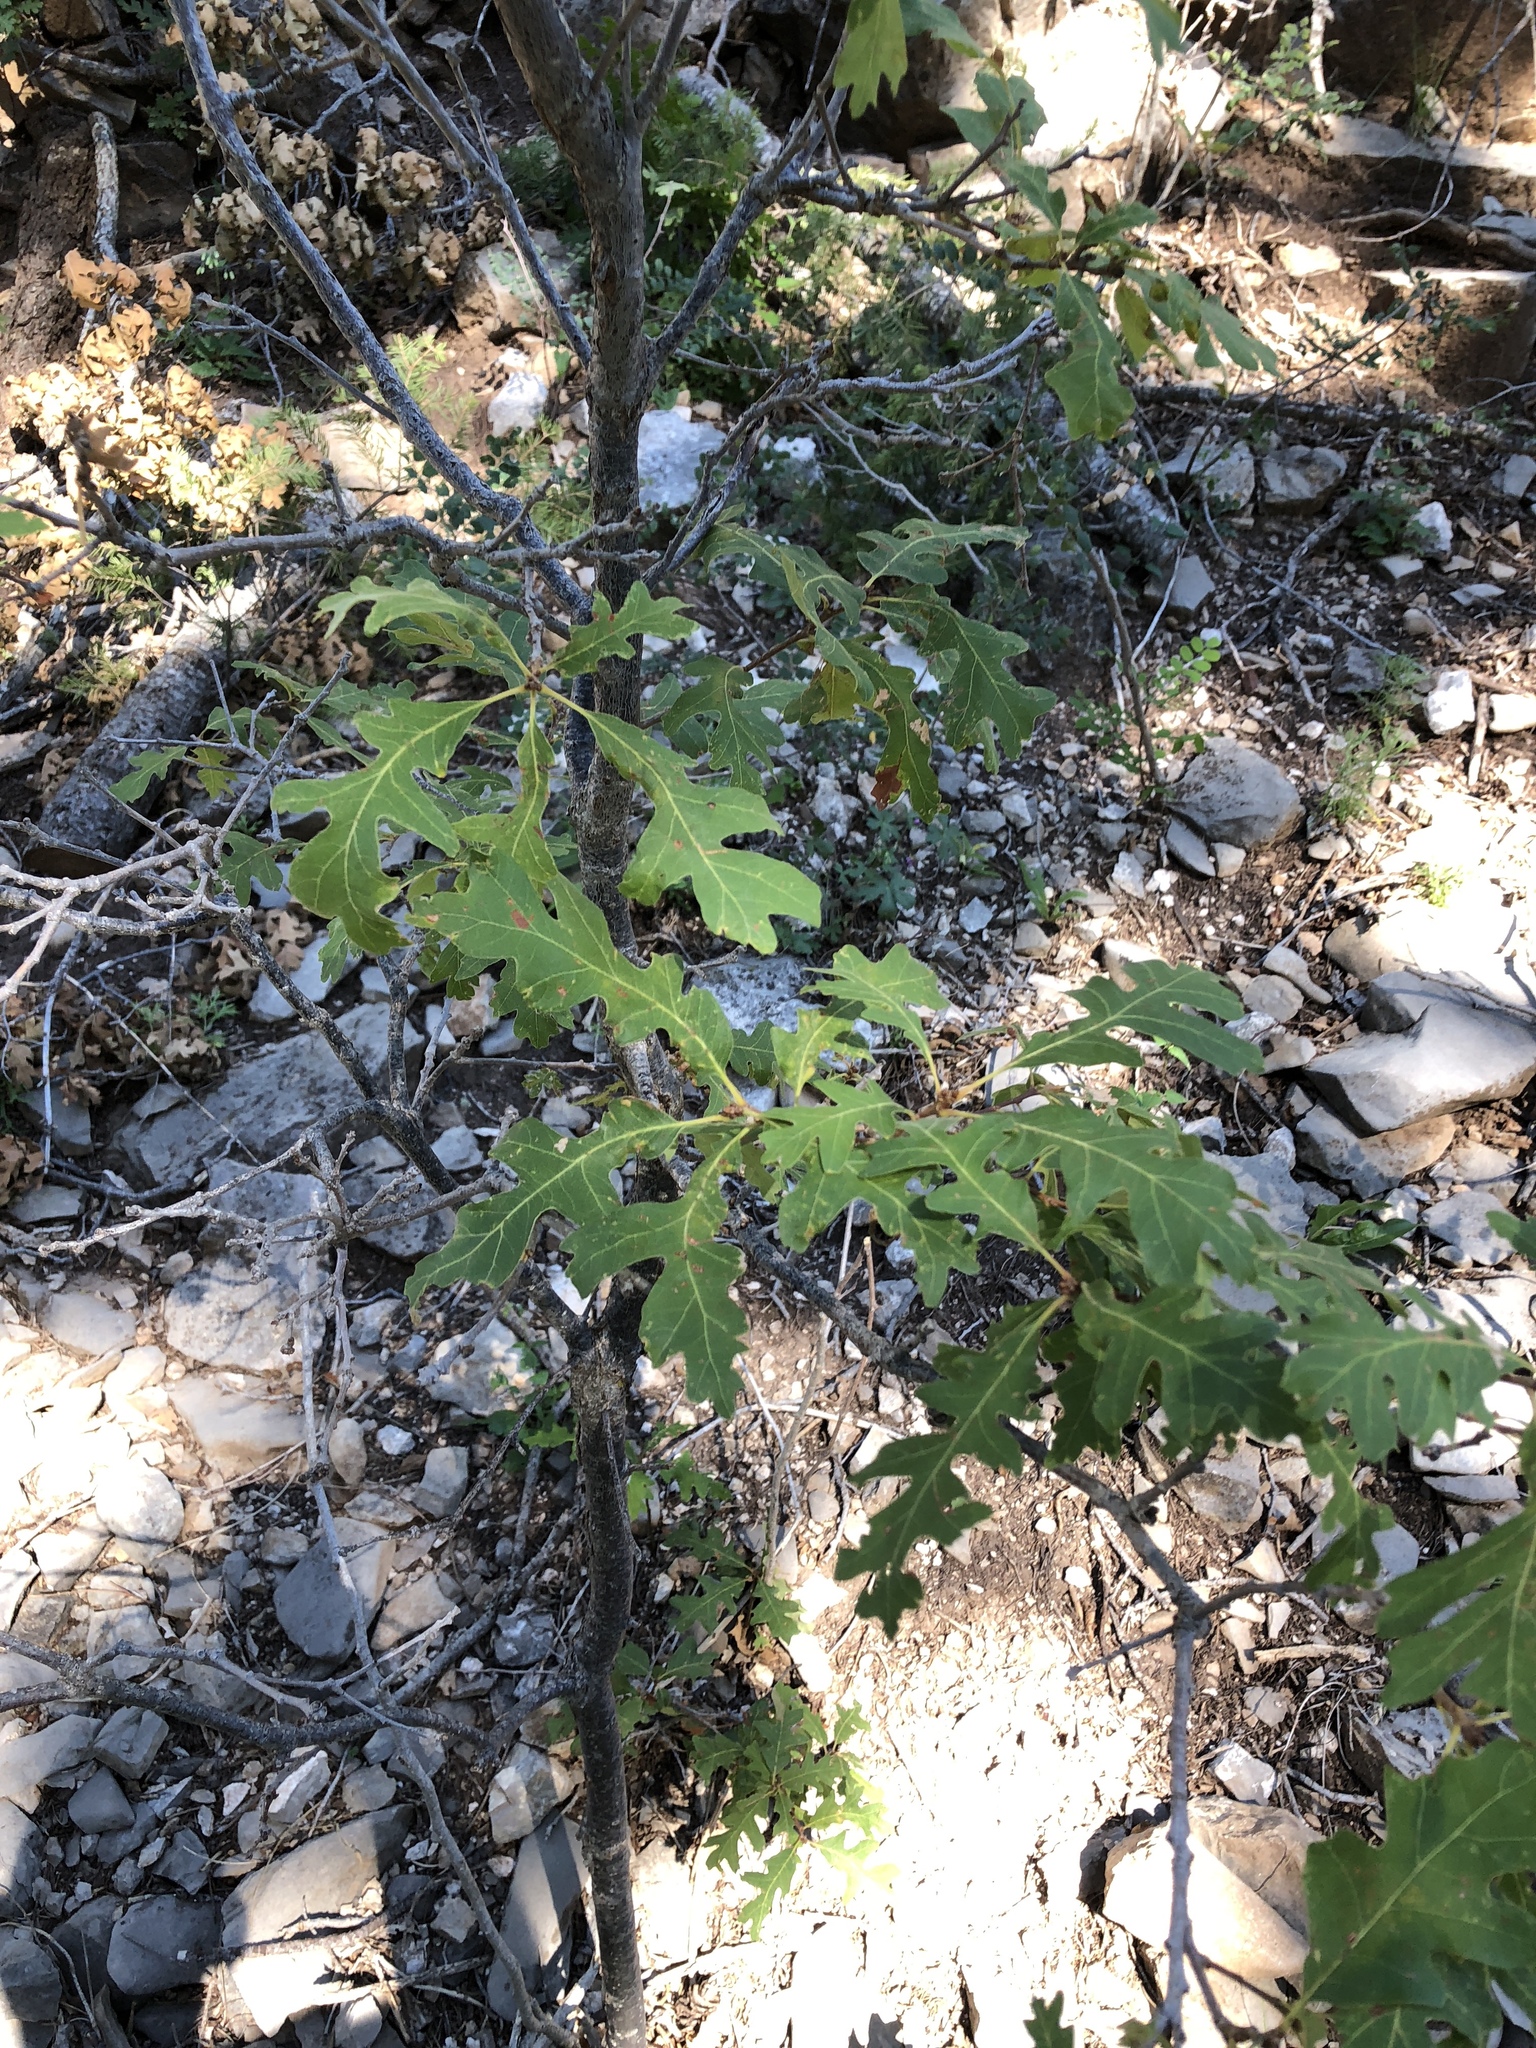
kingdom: Plantae
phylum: Tracheophyta
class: Magnoliopsida
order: Fagales
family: Fagaceae
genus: Quercus
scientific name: Quercus gambelii
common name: Gambel oak
